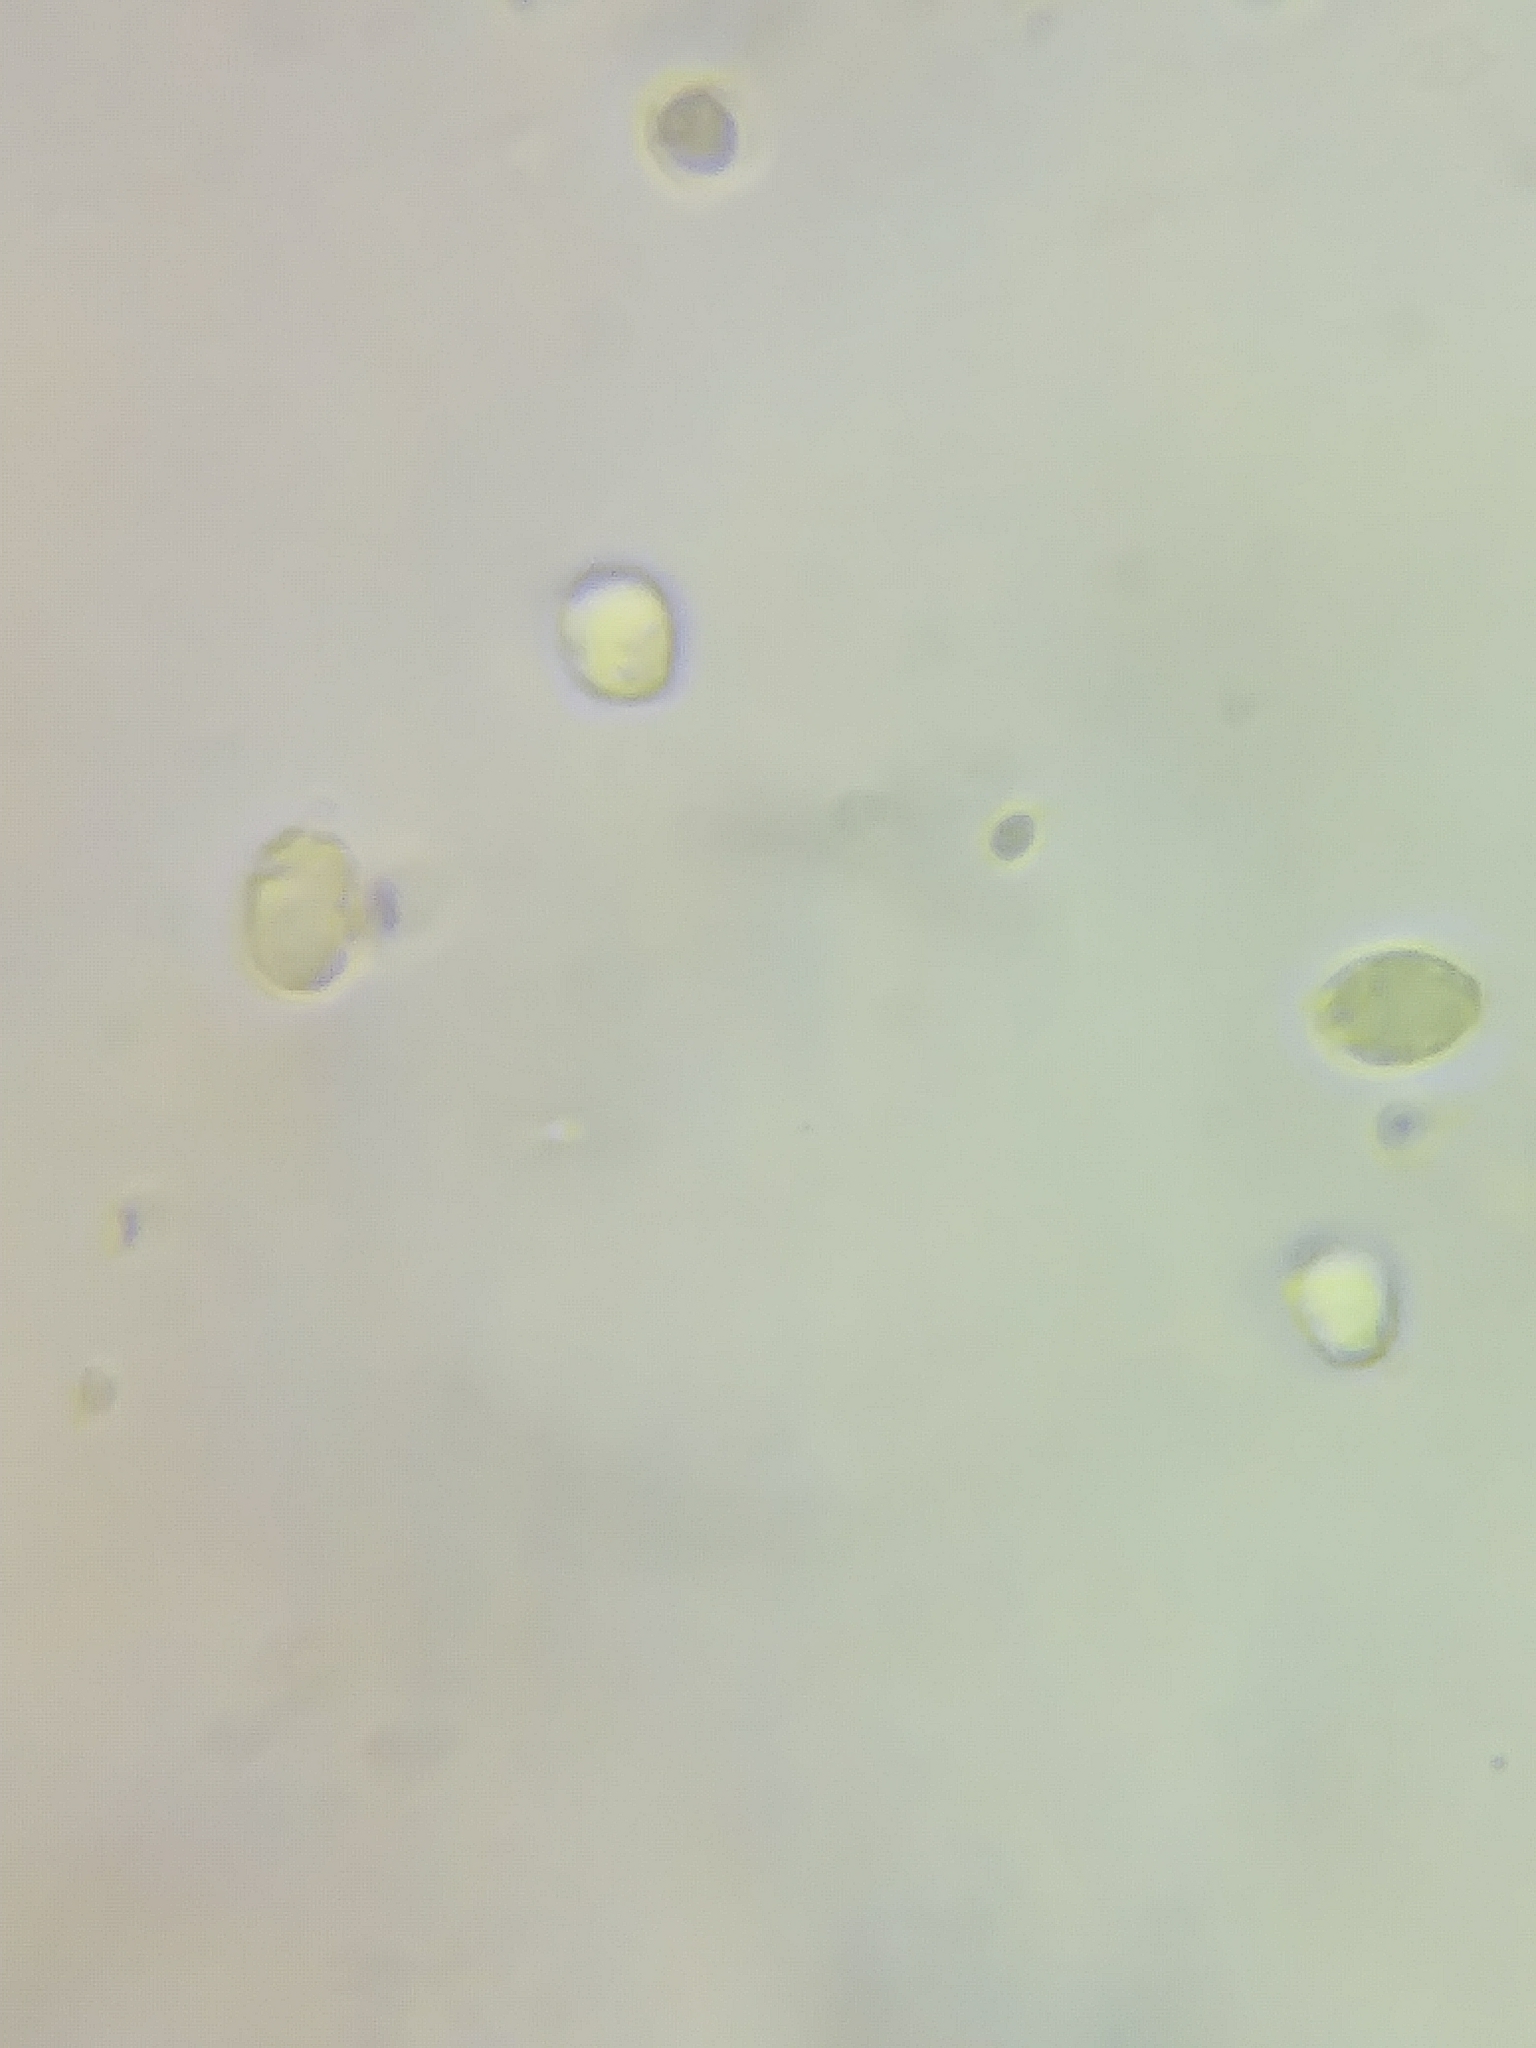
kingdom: Fungi
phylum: Basidiomycota
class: Agaricomycetes
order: Agaricales
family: Hygrophoraceae
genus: Gliophorus
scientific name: Gliophorus laetus
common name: Heath waxcap
